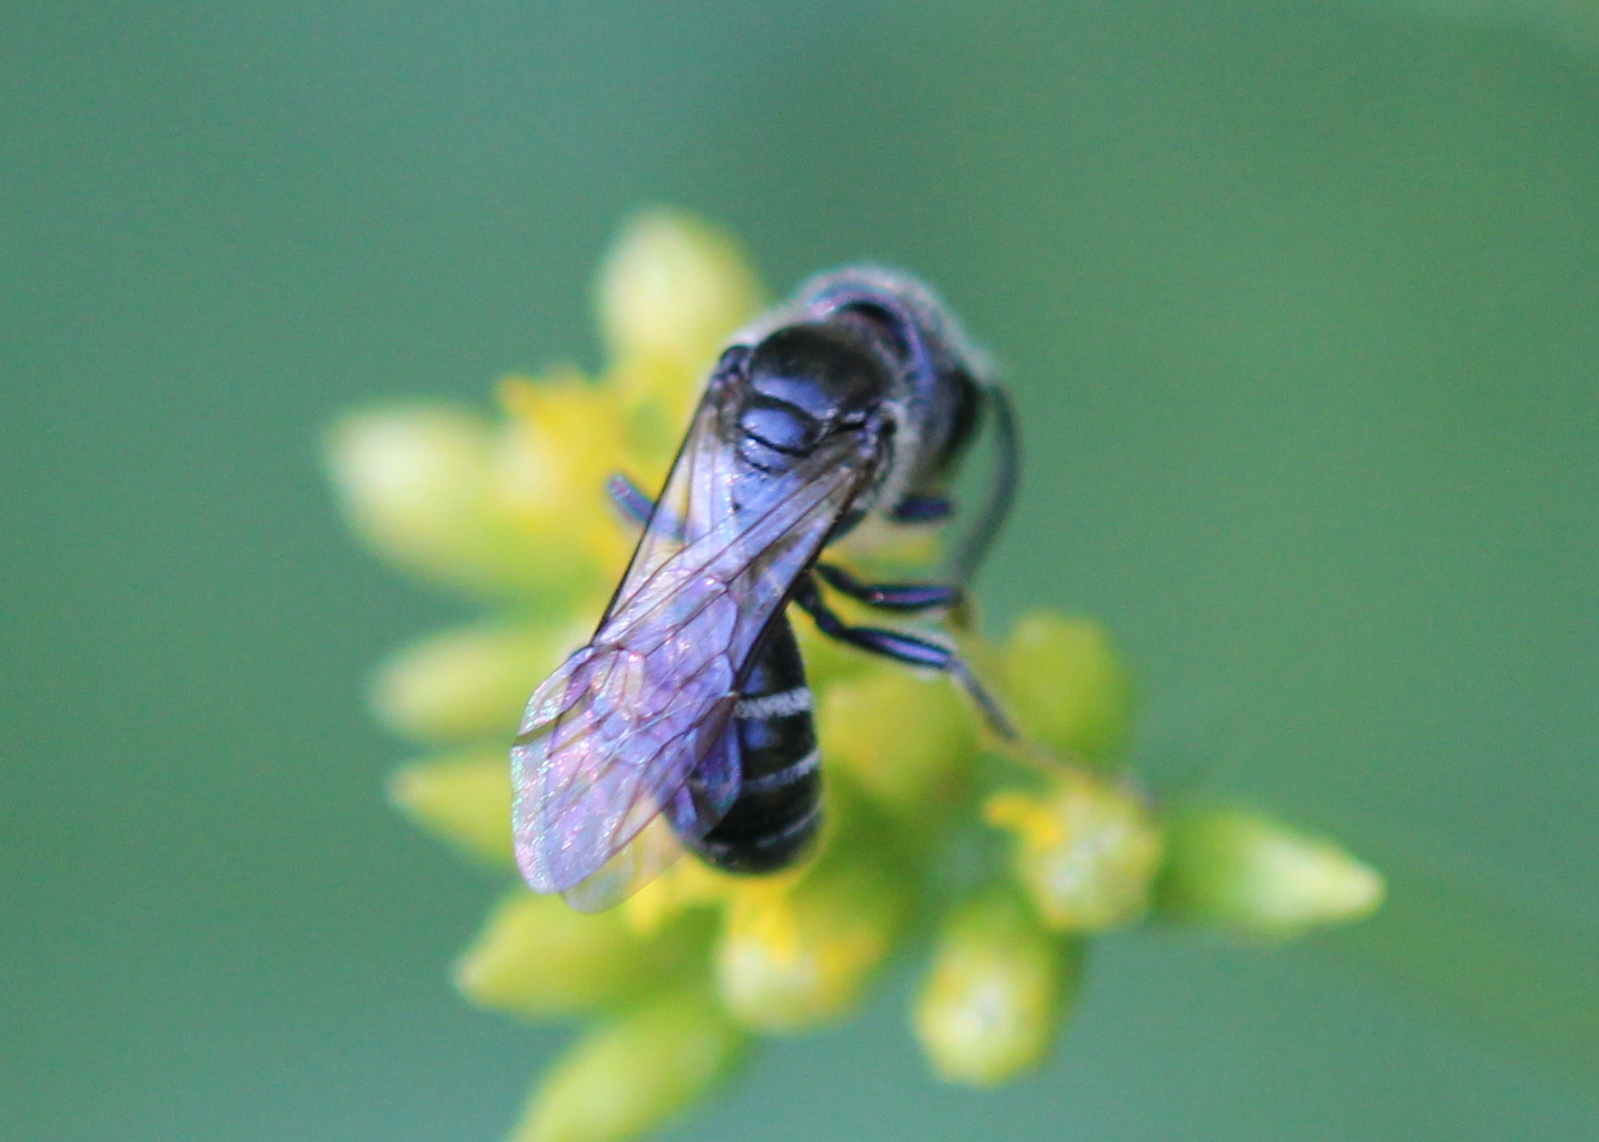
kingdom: Animalia
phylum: Arthropoda
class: Insecta
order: Hymenoptera
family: Halictidae
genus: Lasioglossum
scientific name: Lasioglossum coriaceum
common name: Leathery sweat bee
